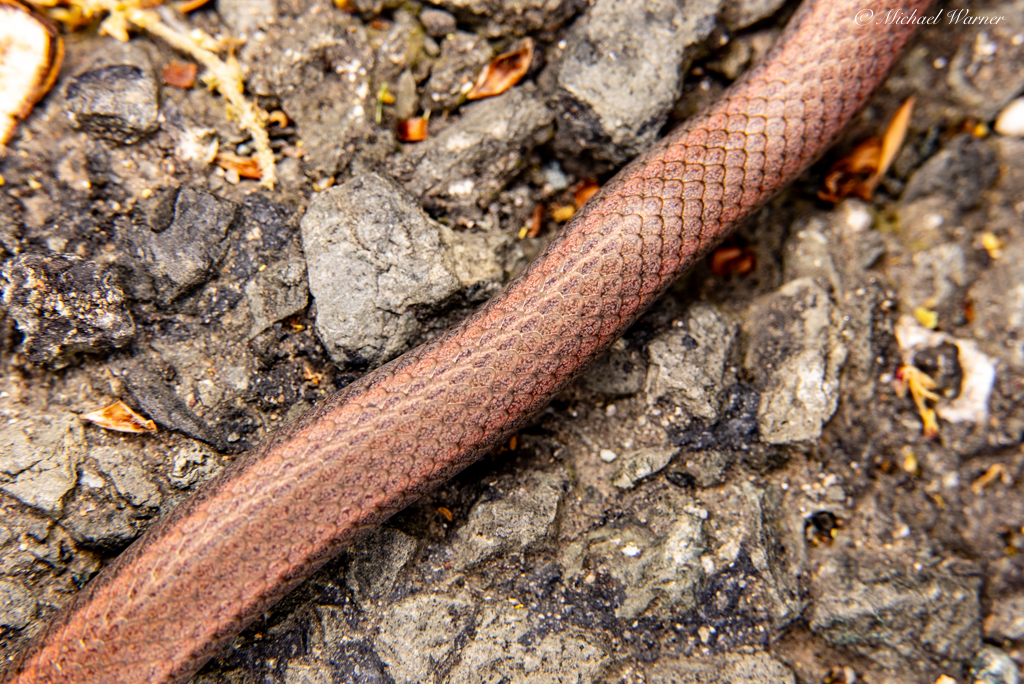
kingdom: Animalia
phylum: Chordata
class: Squamata
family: Colubridae
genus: Contia
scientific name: Contia tenuis
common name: Sharptail snake
